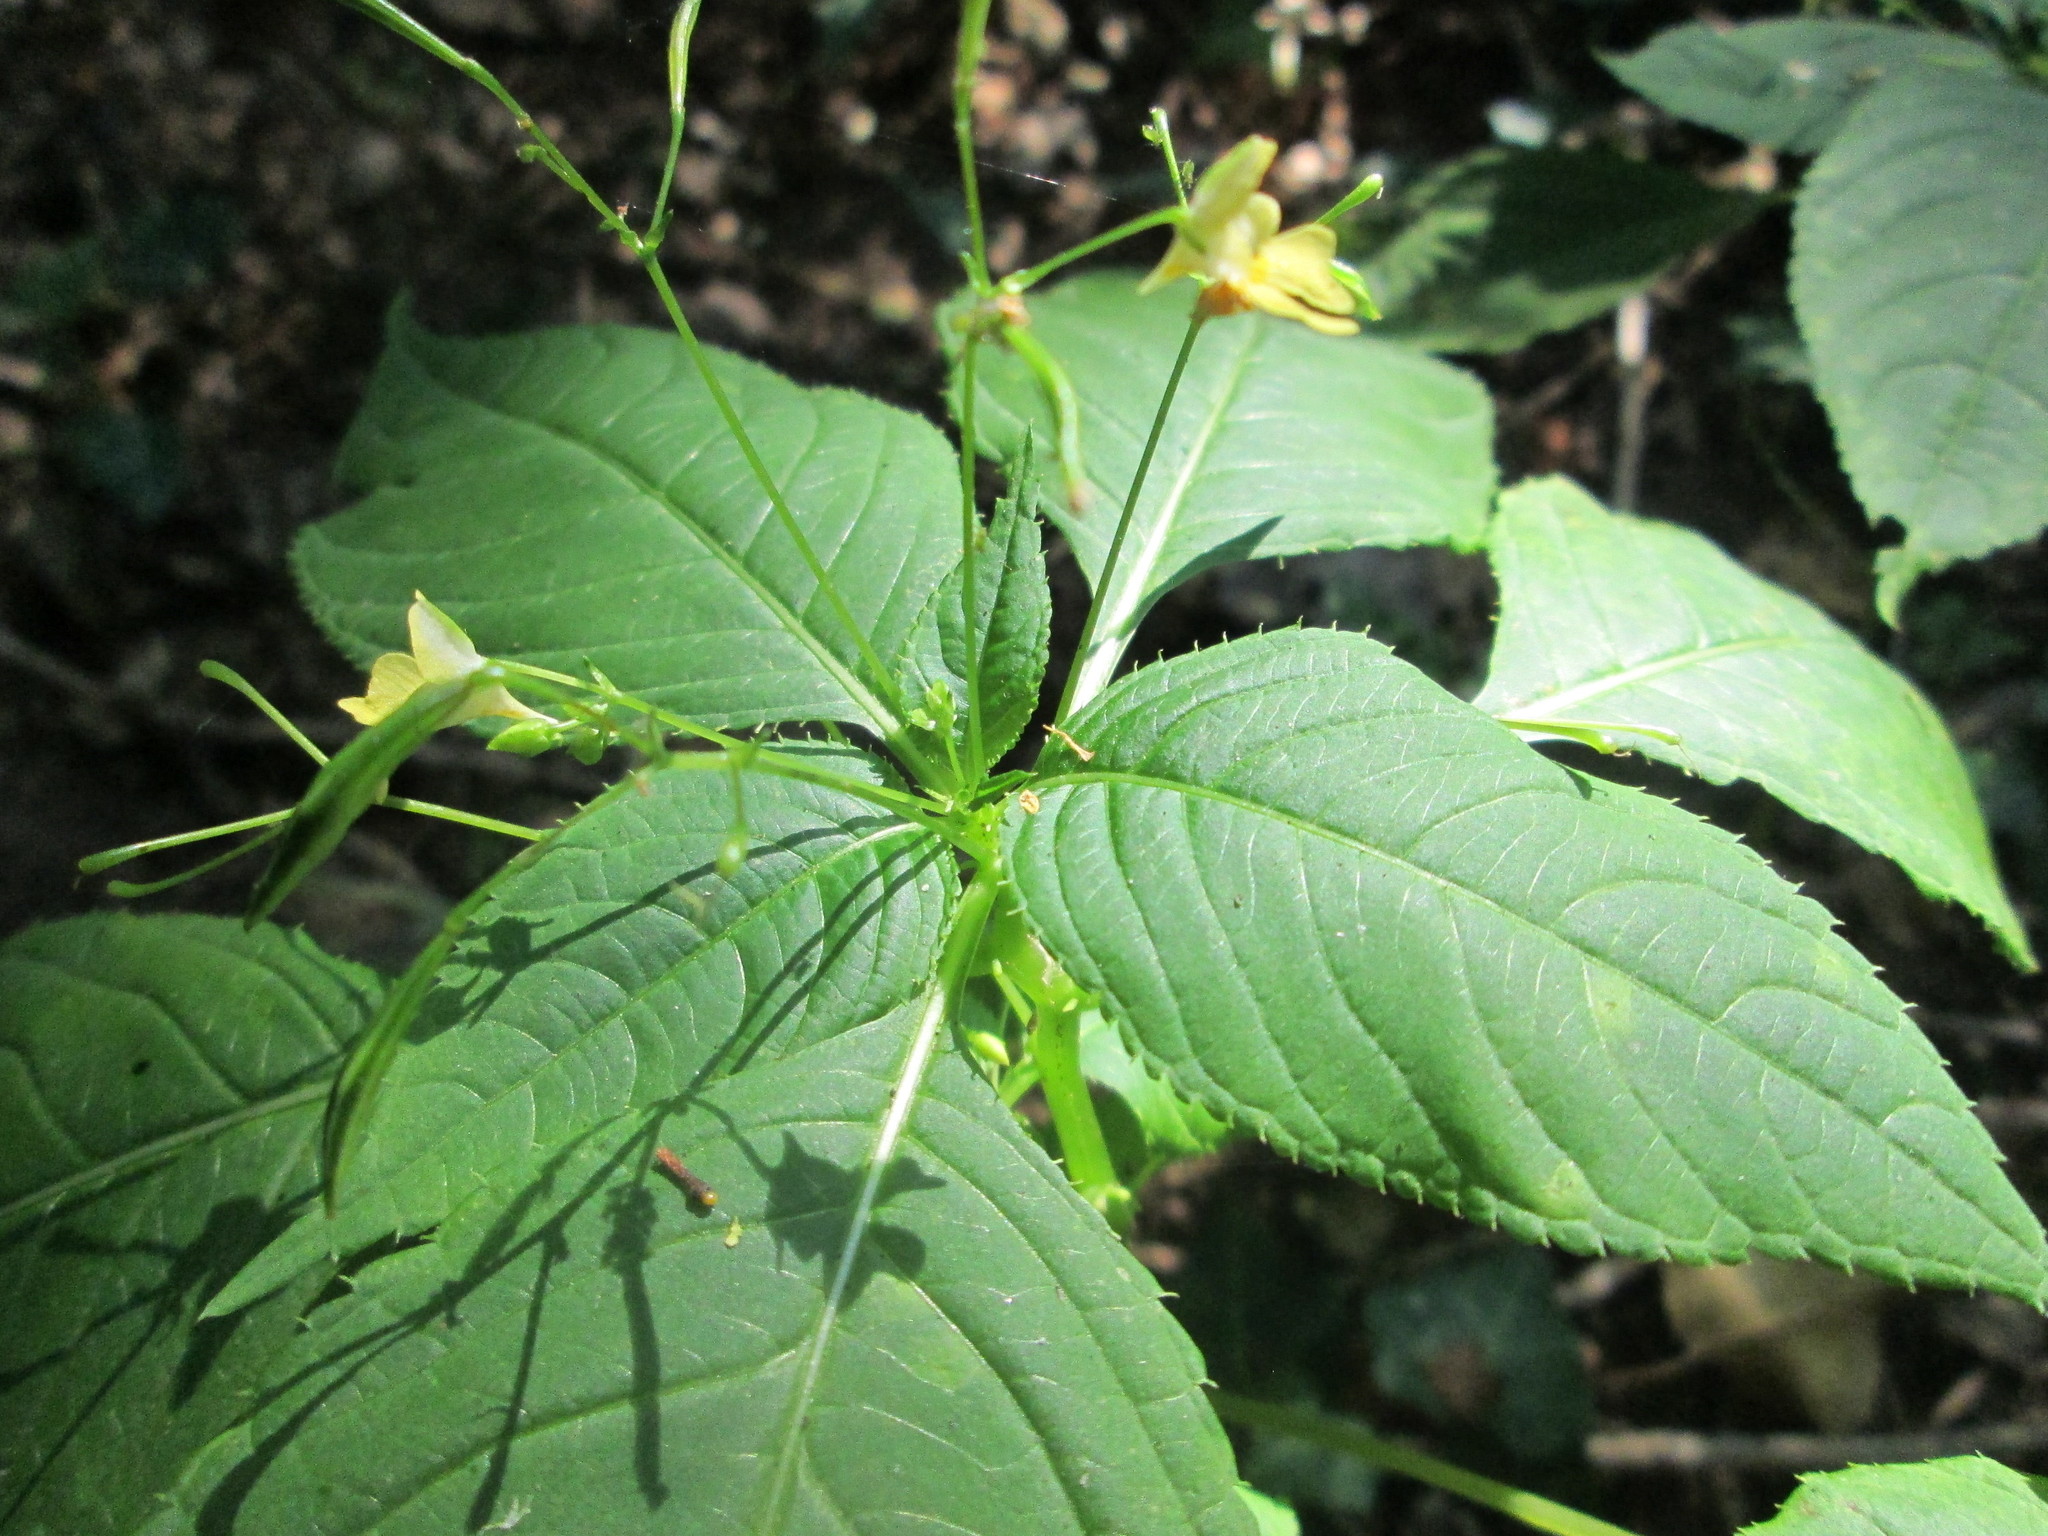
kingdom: Plantae
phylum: Tracheophyta
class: Magnoliopsida
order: Ericales
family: Balsaminaceae
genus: Impatiens
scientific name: Impatiens parviflora
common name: Small balsam
